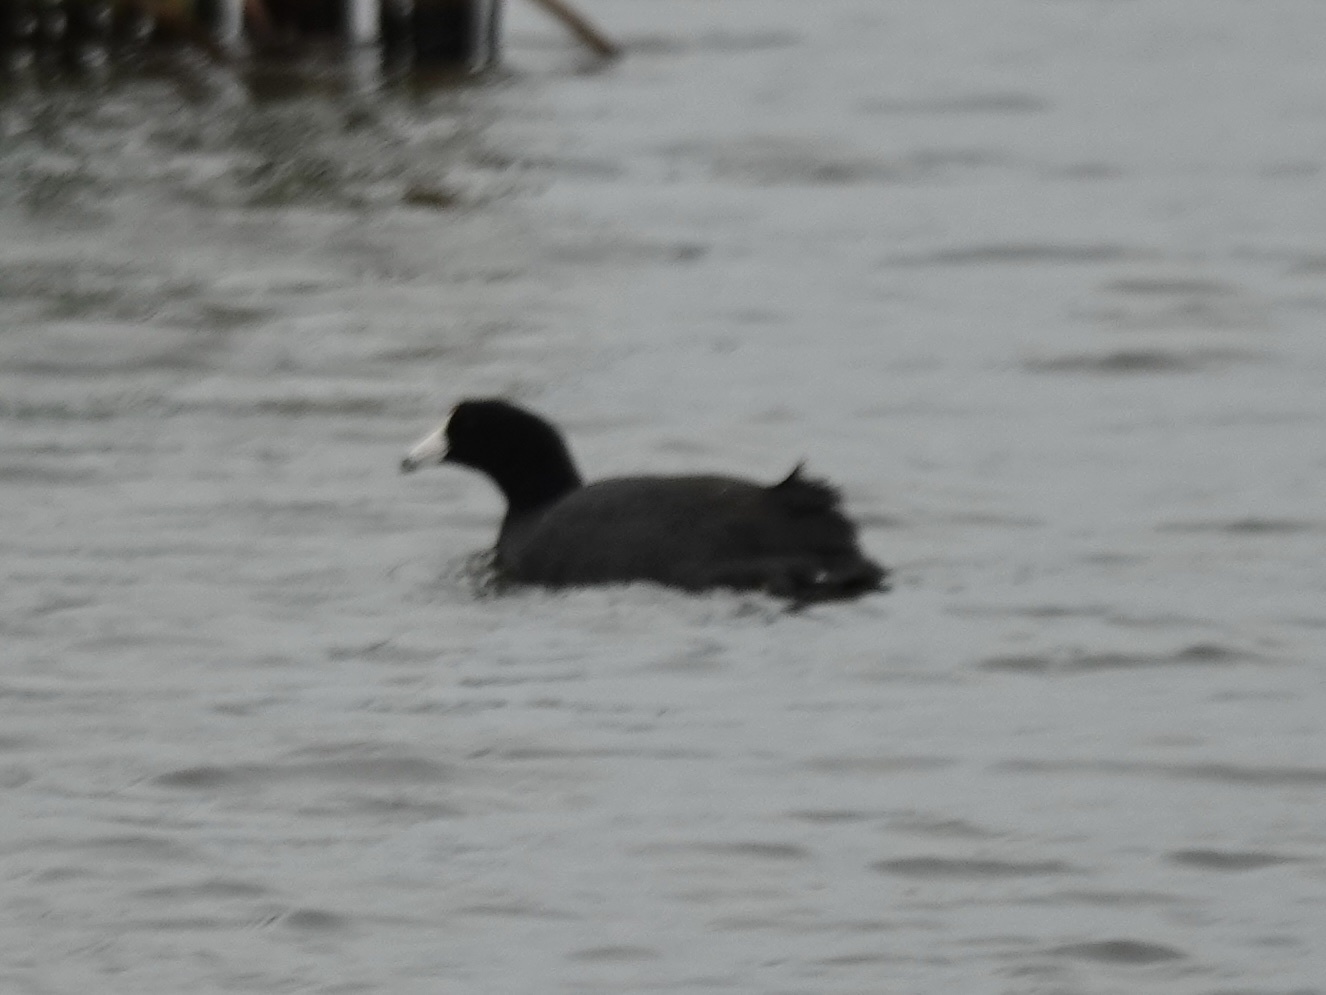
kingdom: Animalia
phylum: Chordata
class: Aves
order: Gruiformes
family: Rallidae
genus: Fulica
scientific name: Fulica americana
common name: American coot
